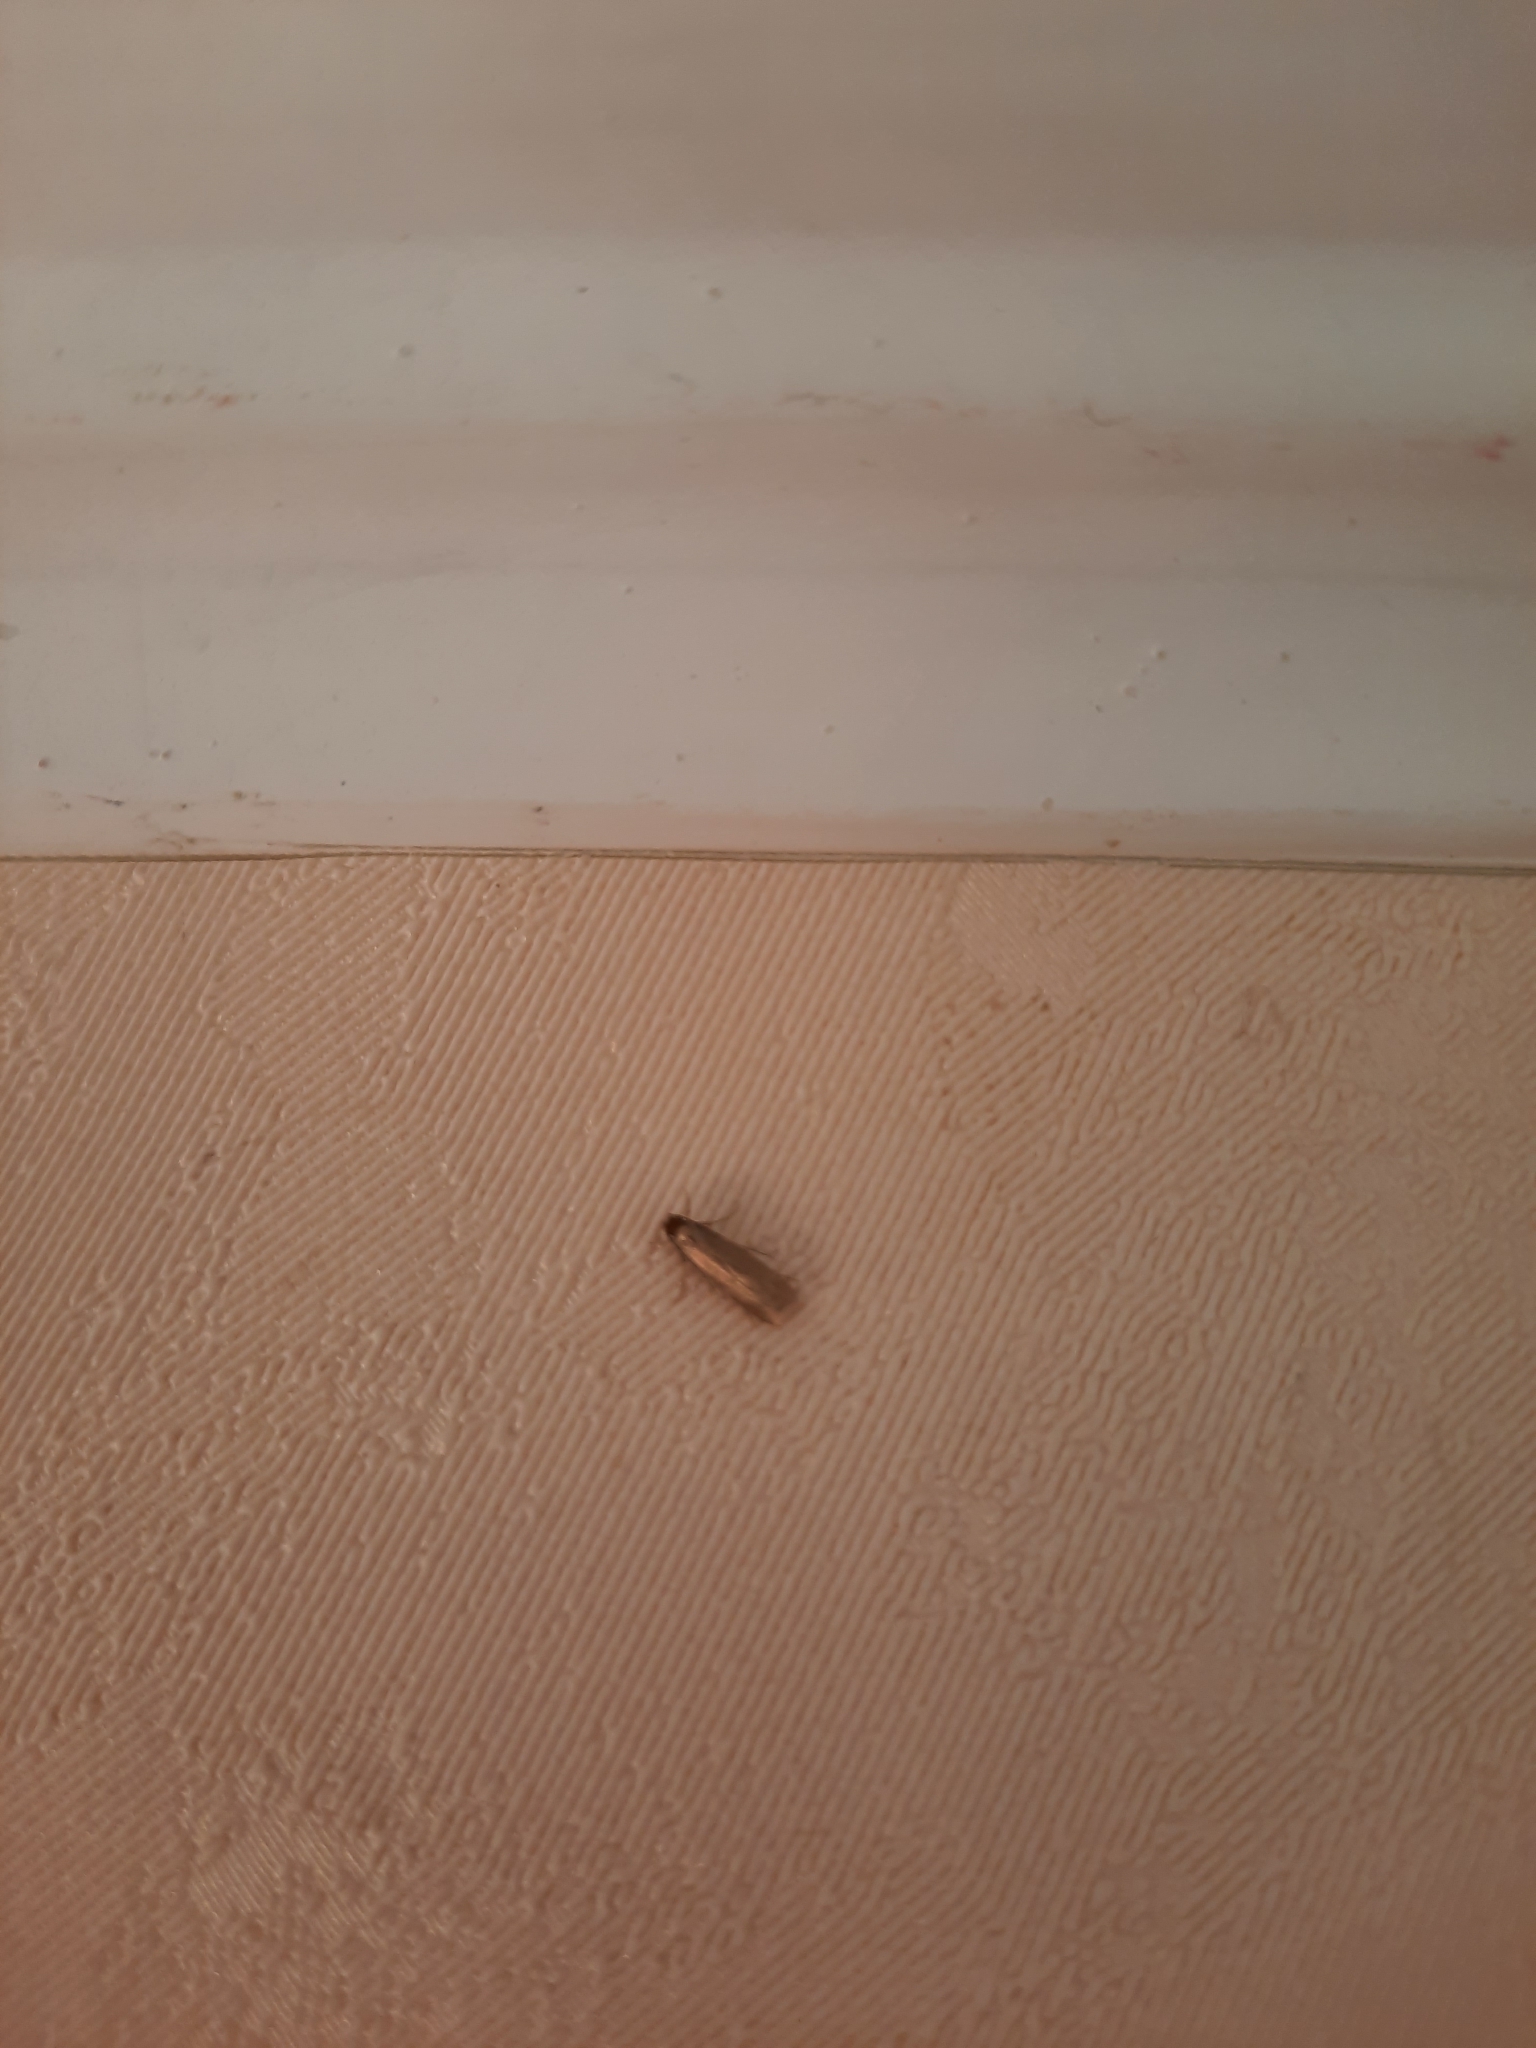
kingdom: Animalia
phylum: Arthropoda
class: Insecta
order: Lepidoptera
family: Tineidae
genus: Tineola
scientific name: Tineola bisselliella
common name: Webbing clothes moth
